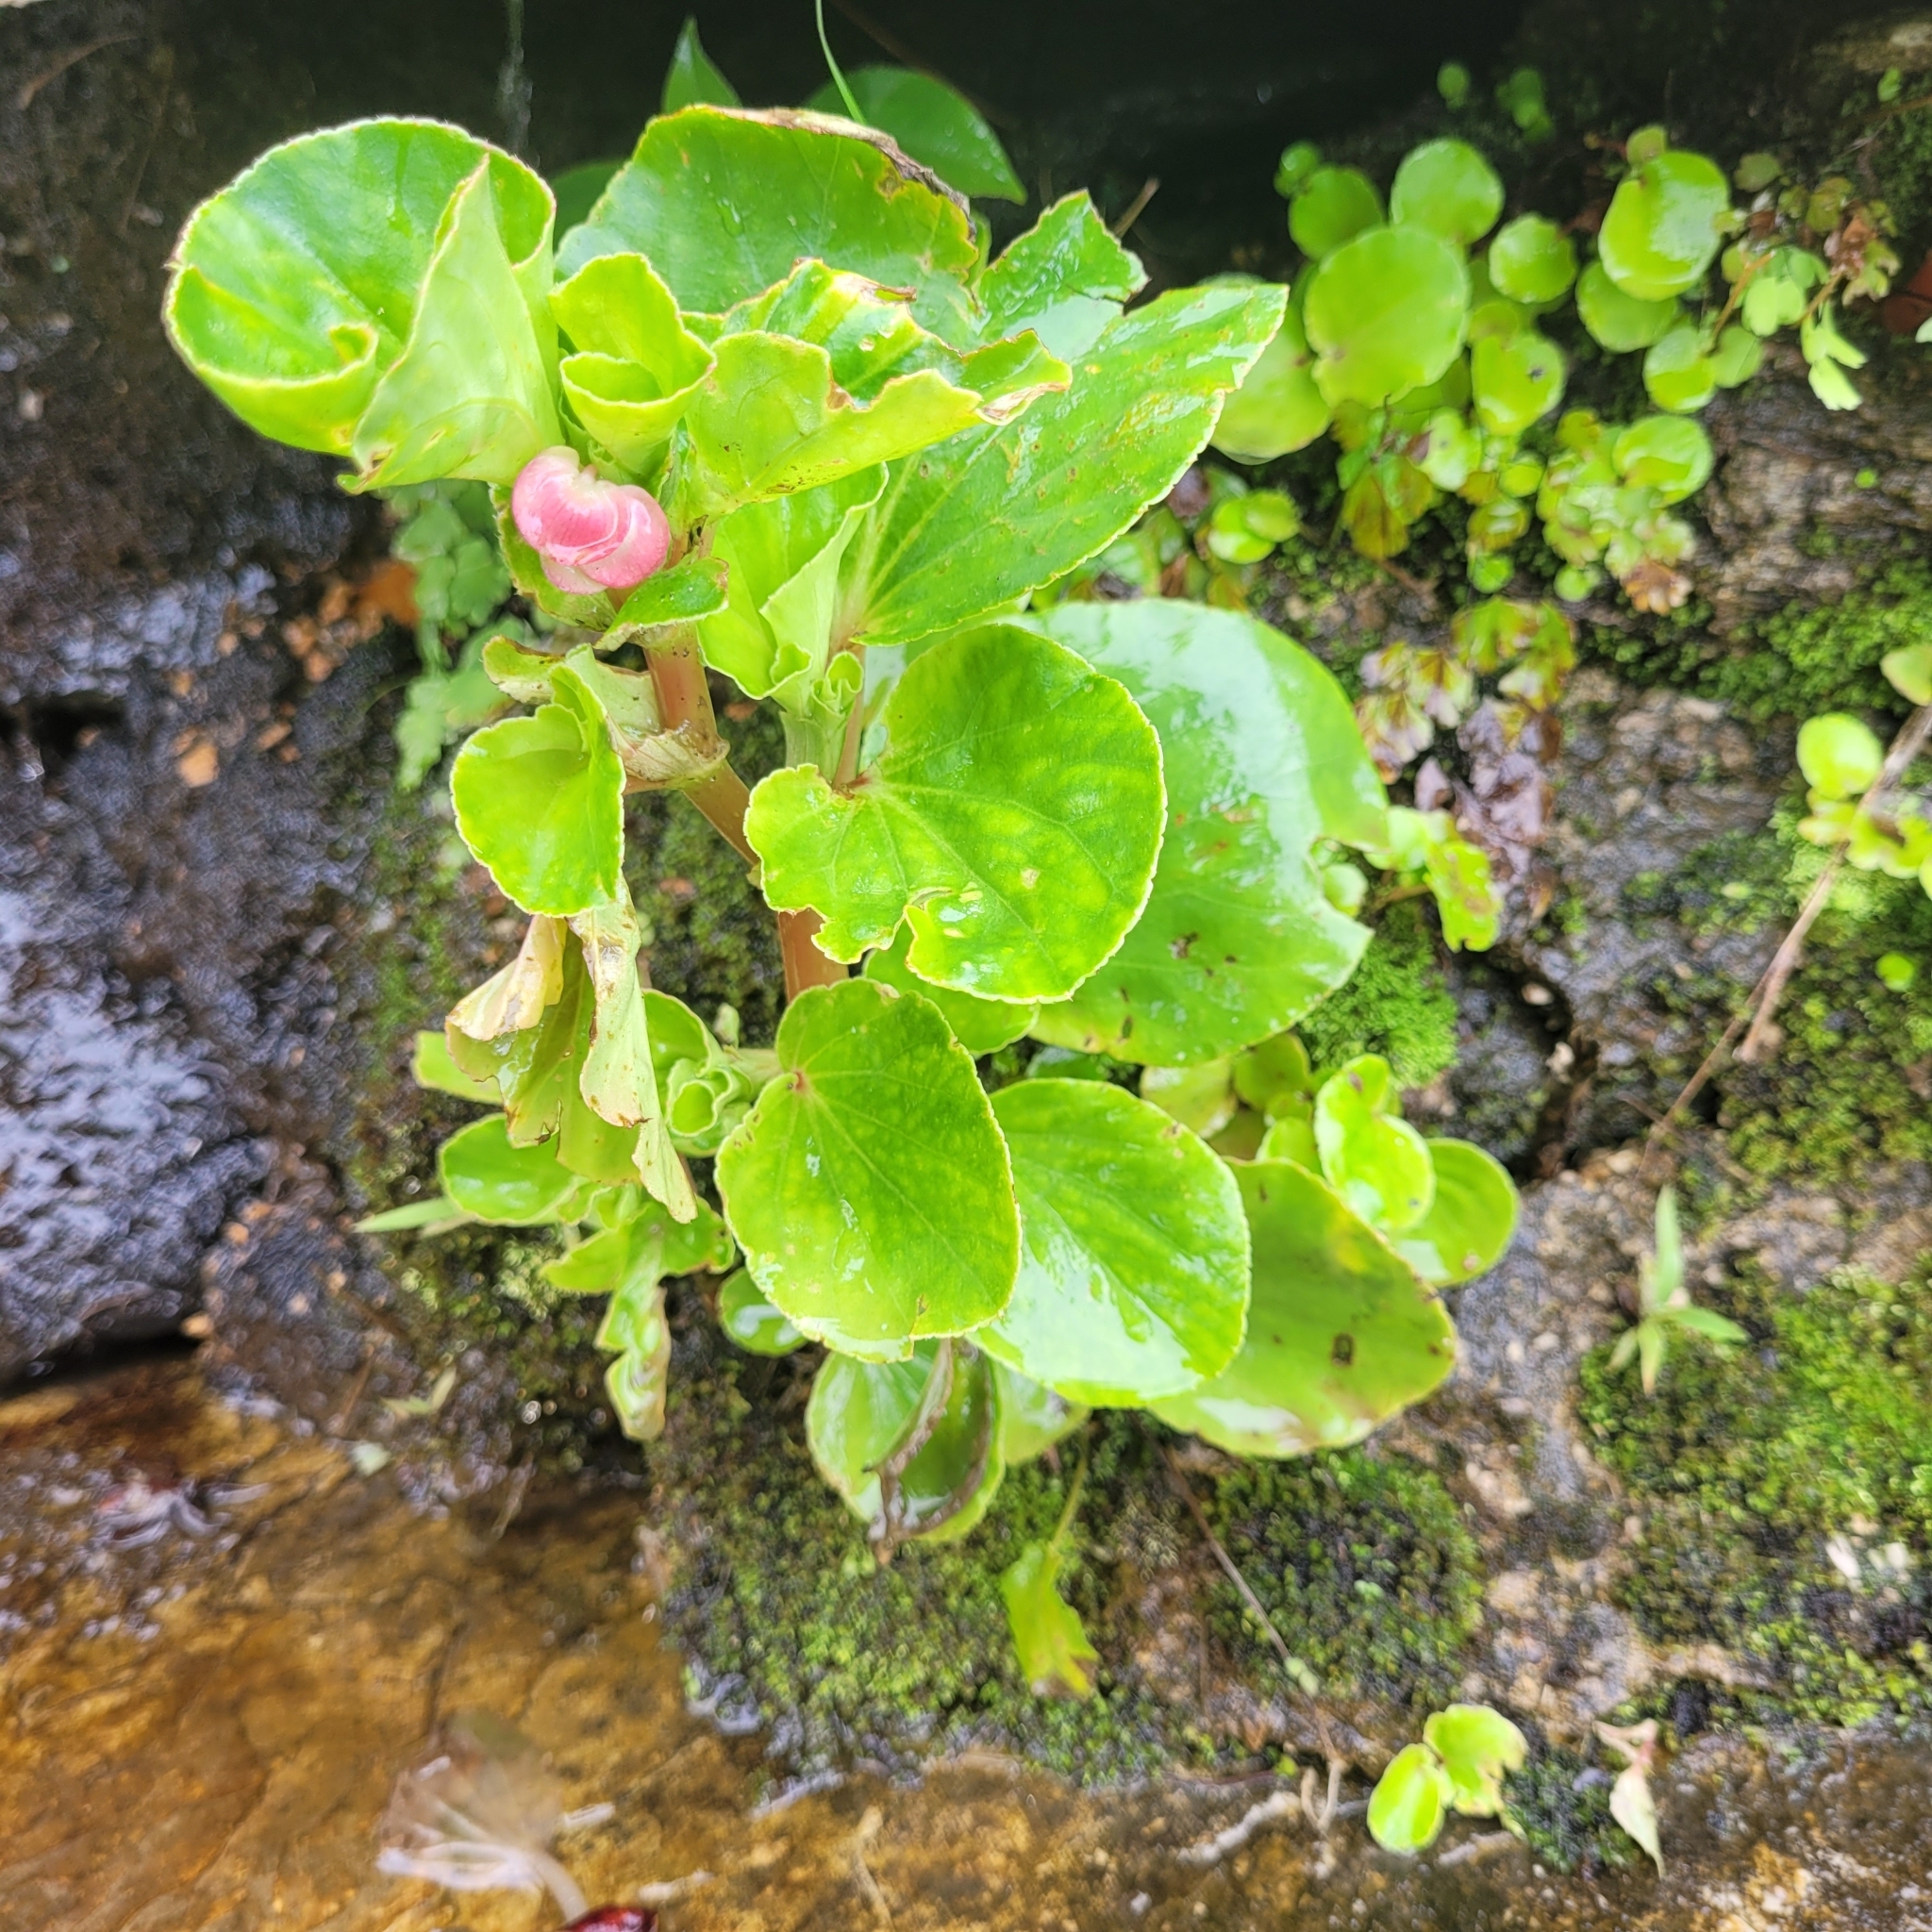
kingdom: Plantae
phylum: Tracheophyta
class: Magnoliopsida
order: Cucurbitales
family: Begoniaceae
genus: Begonia
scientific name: Begonia cucullata
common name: Clubbed begonia
